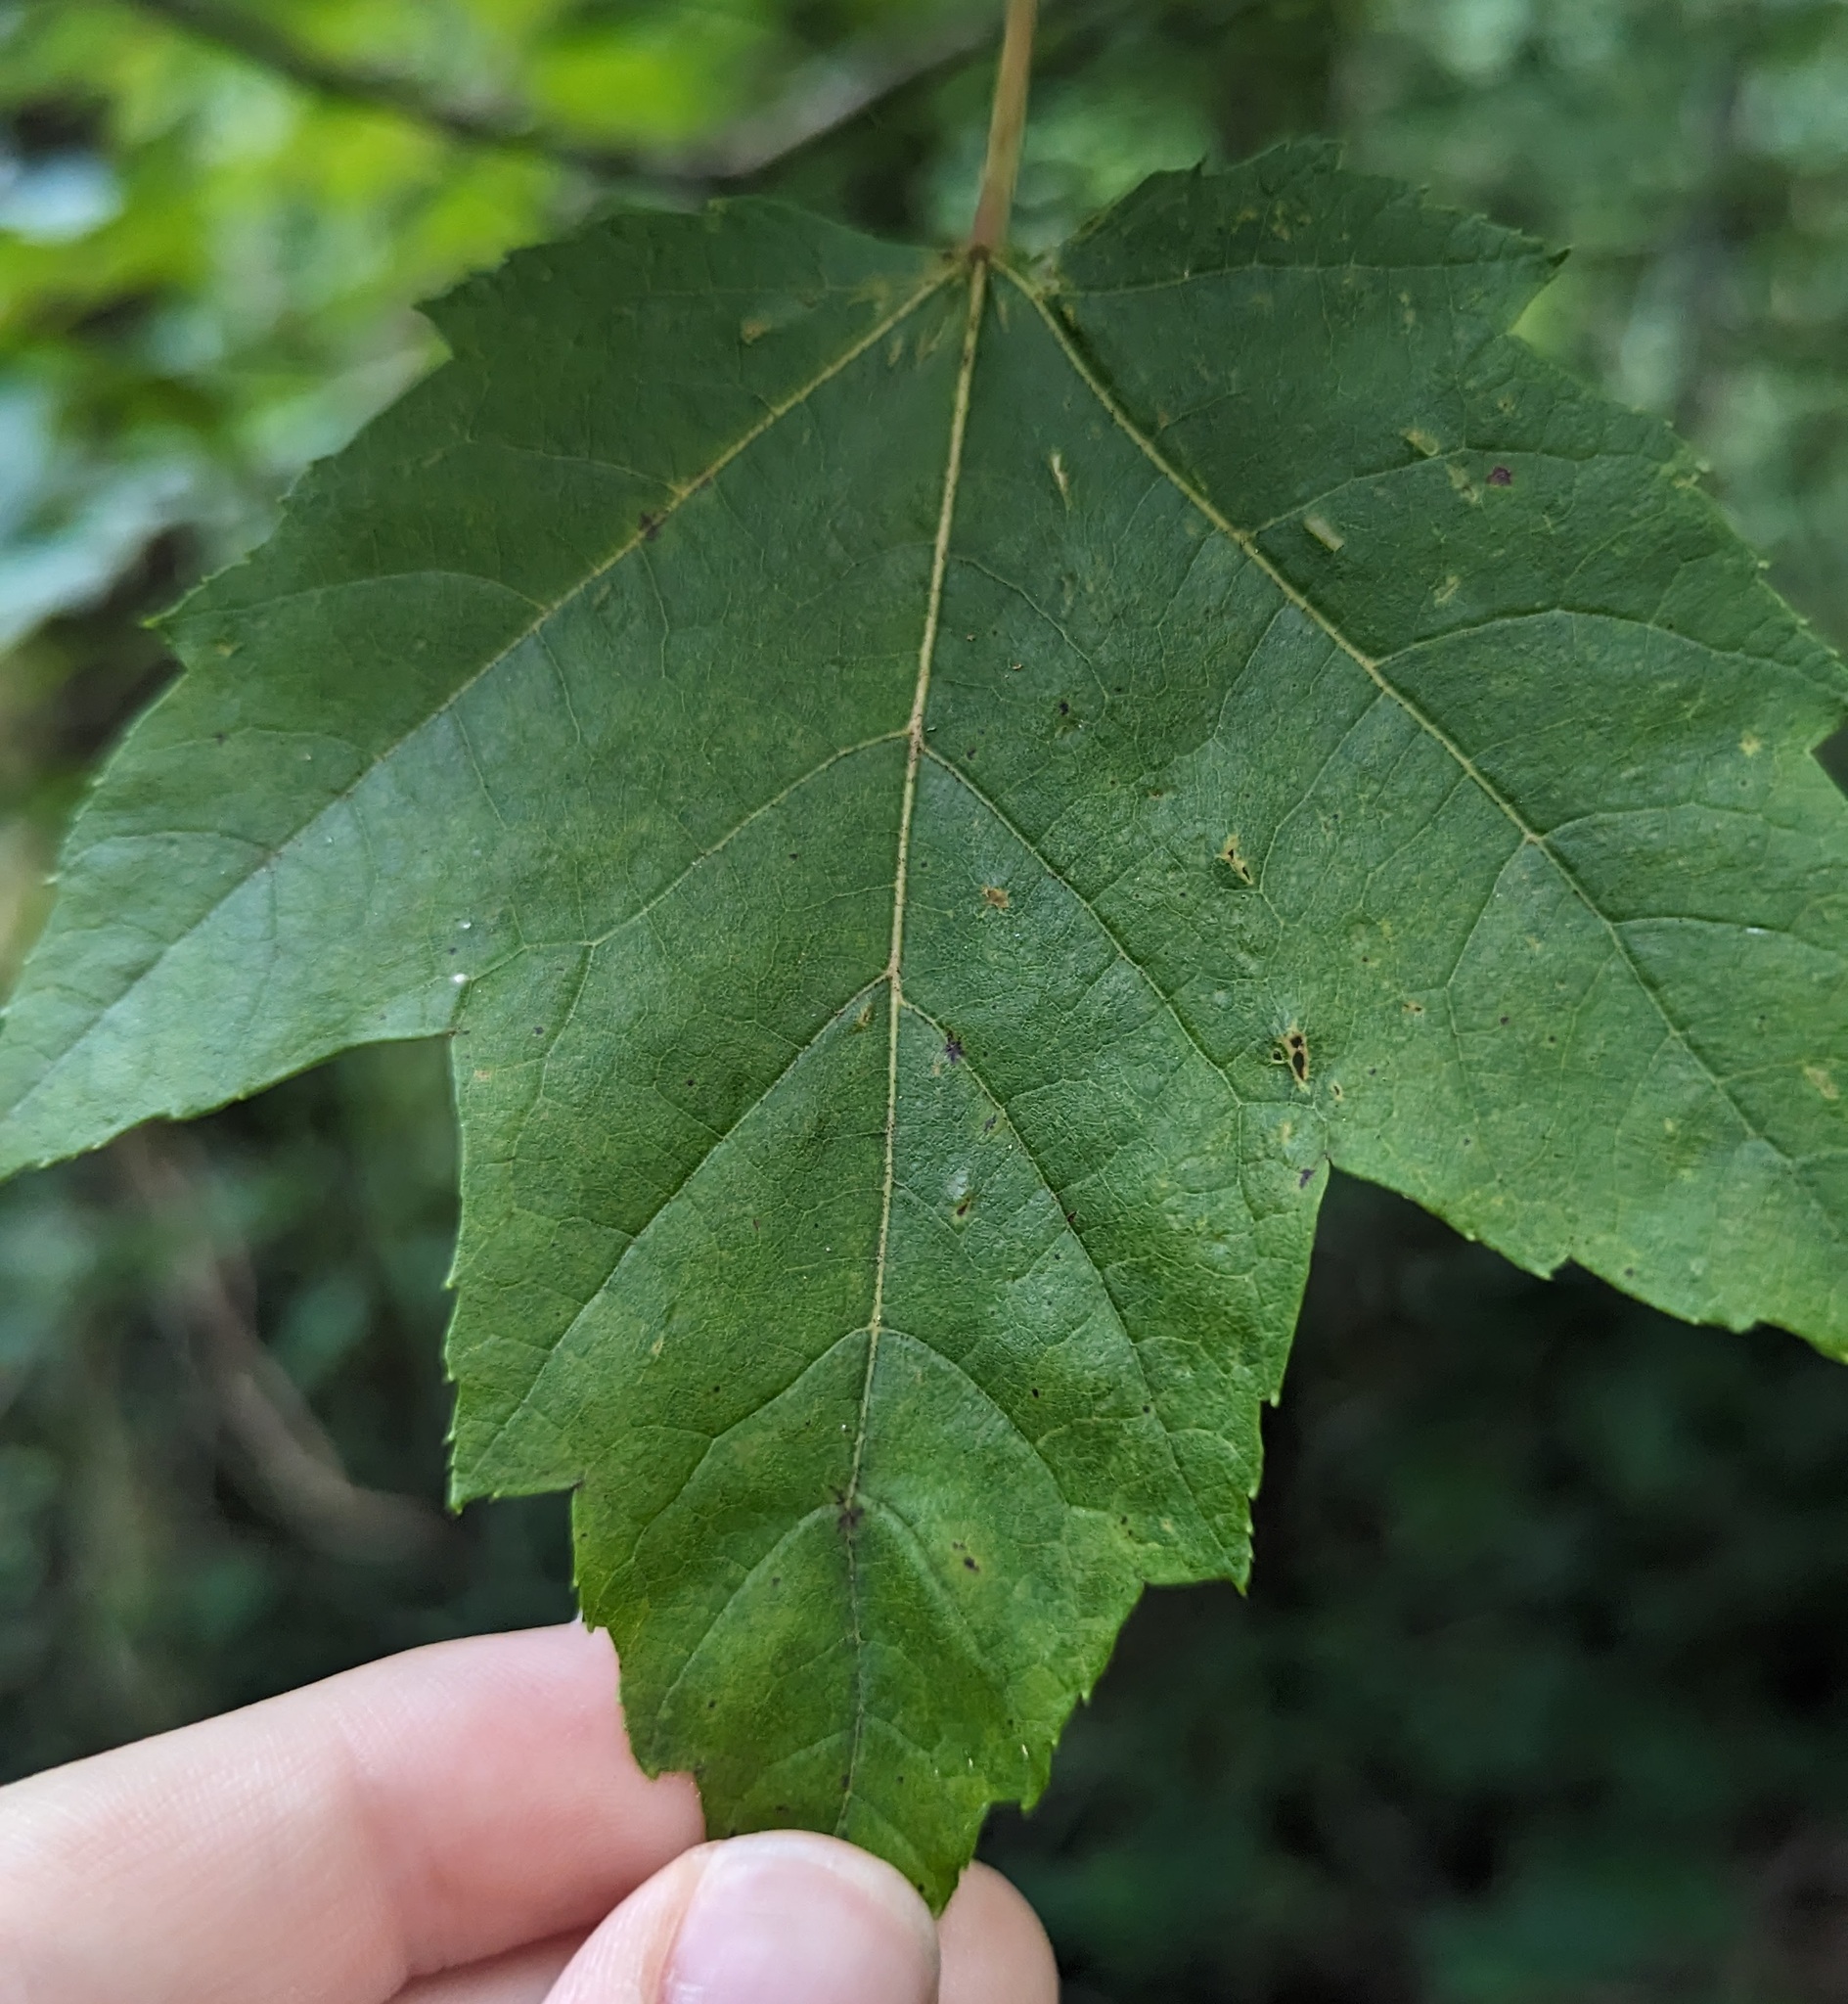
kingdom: Plantae
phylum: Tracheophyta
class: Magnoliopsida
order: Sapindales
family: Sapindaceae
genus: Acer
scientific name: Acer rubrum
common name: Red maple
